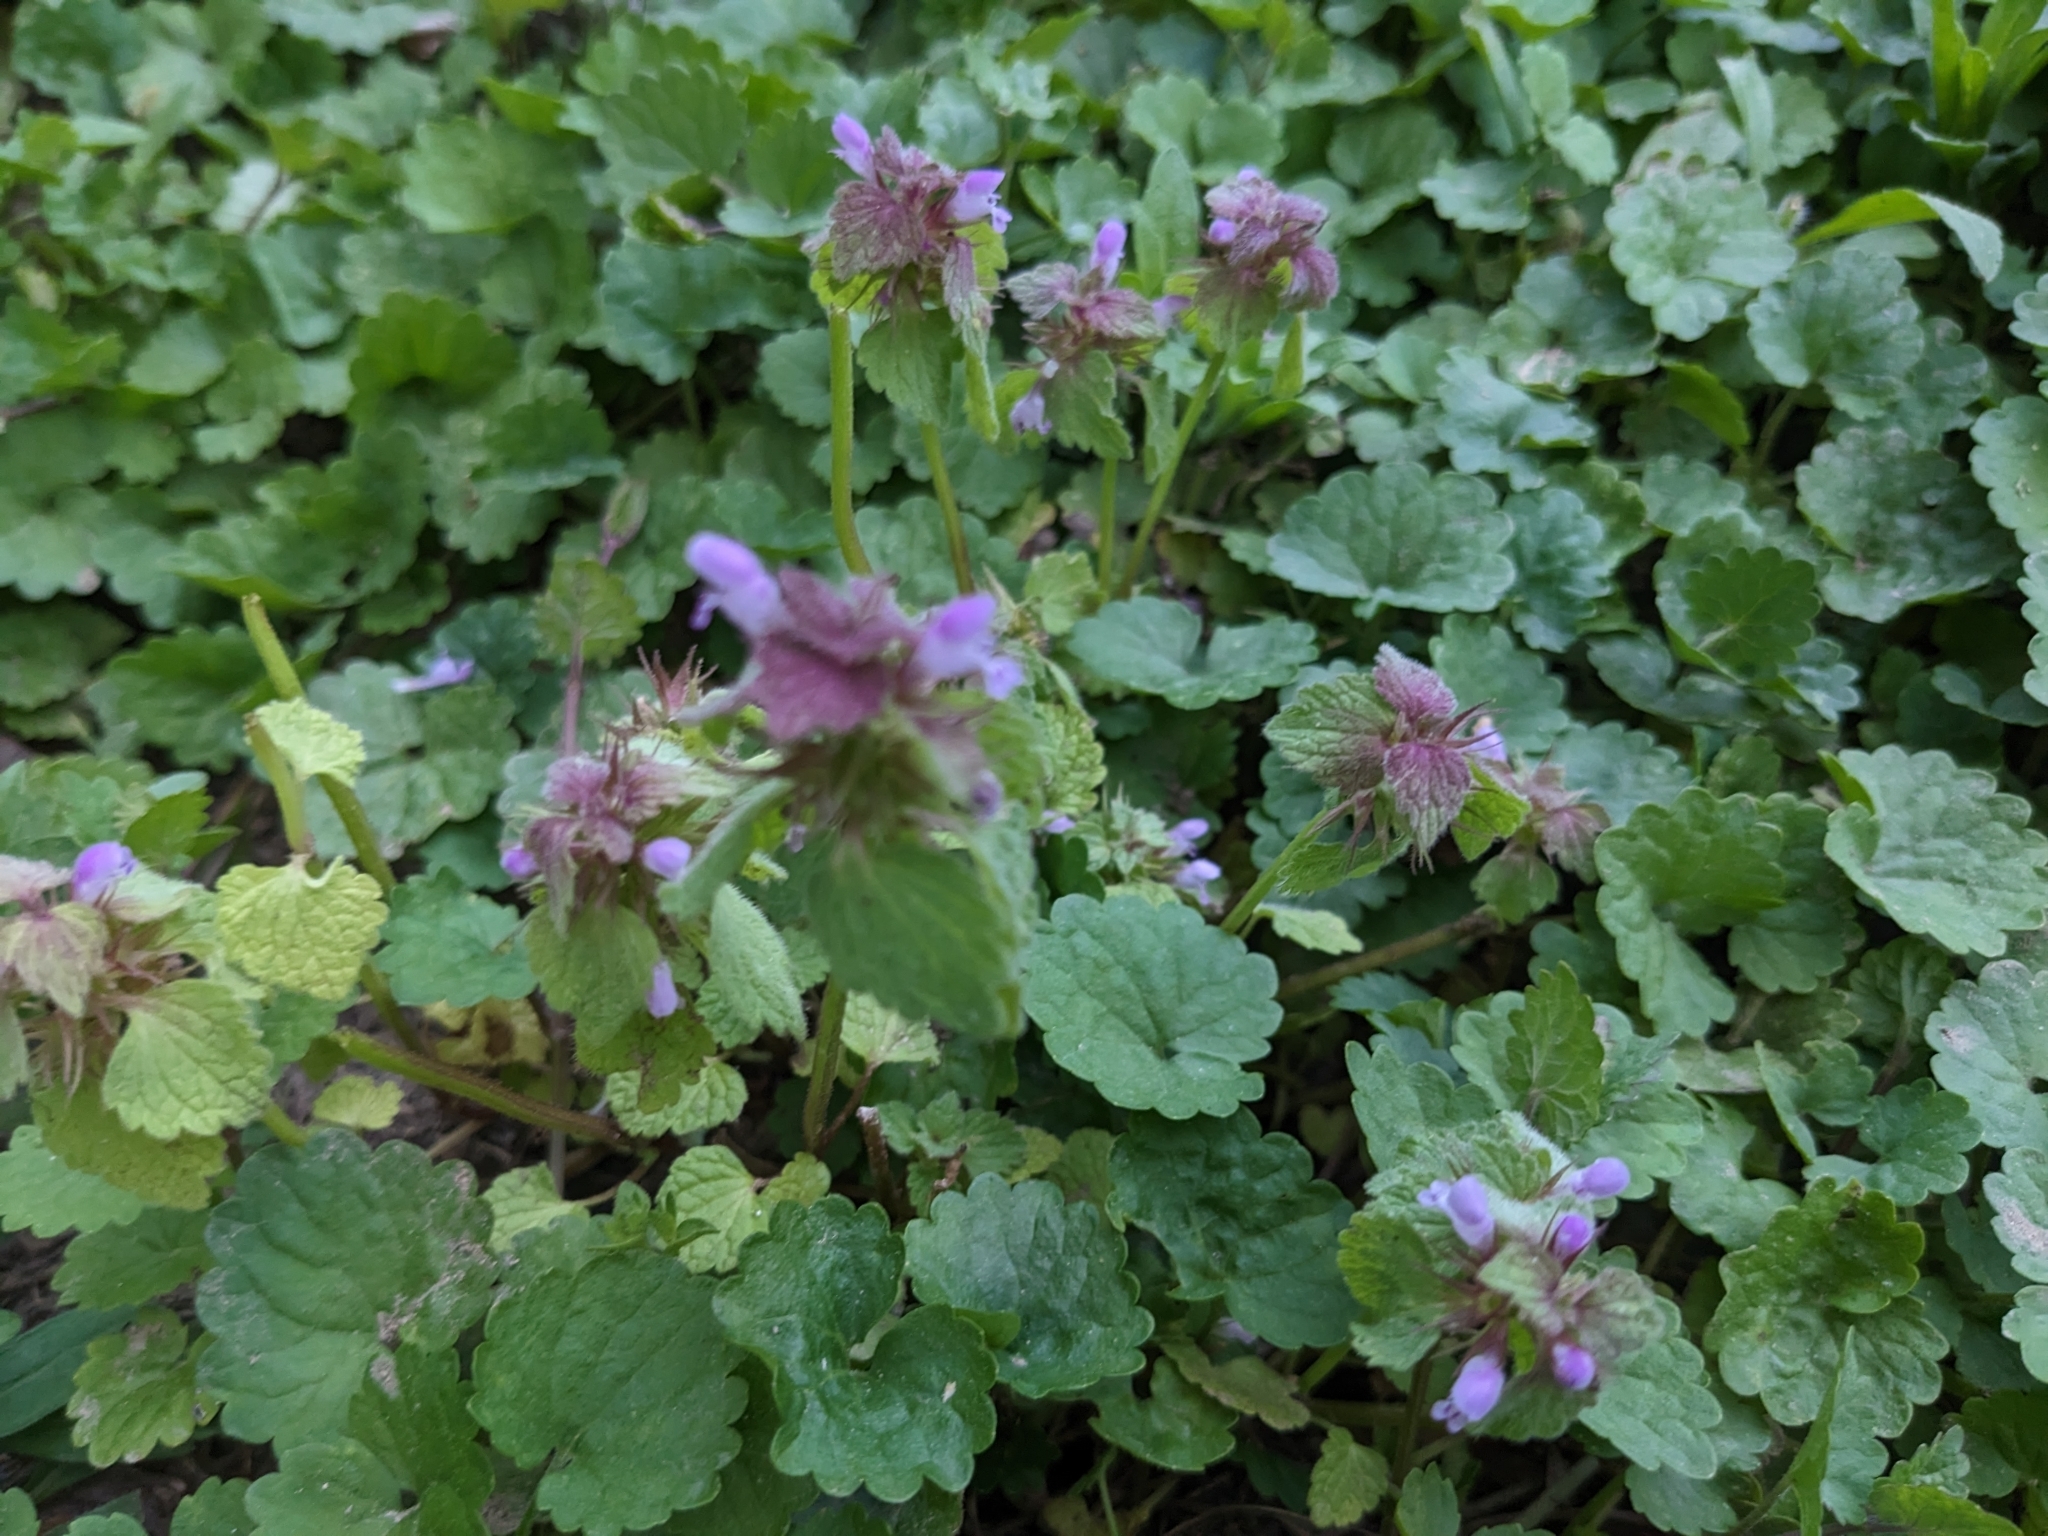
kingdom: Plantae
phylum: Tracheophyta
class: Magnoliopsida
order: Lamiales
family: Lamiaceae
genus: Lamium
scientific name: Lamium purpureum
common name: Red dead-nettle
